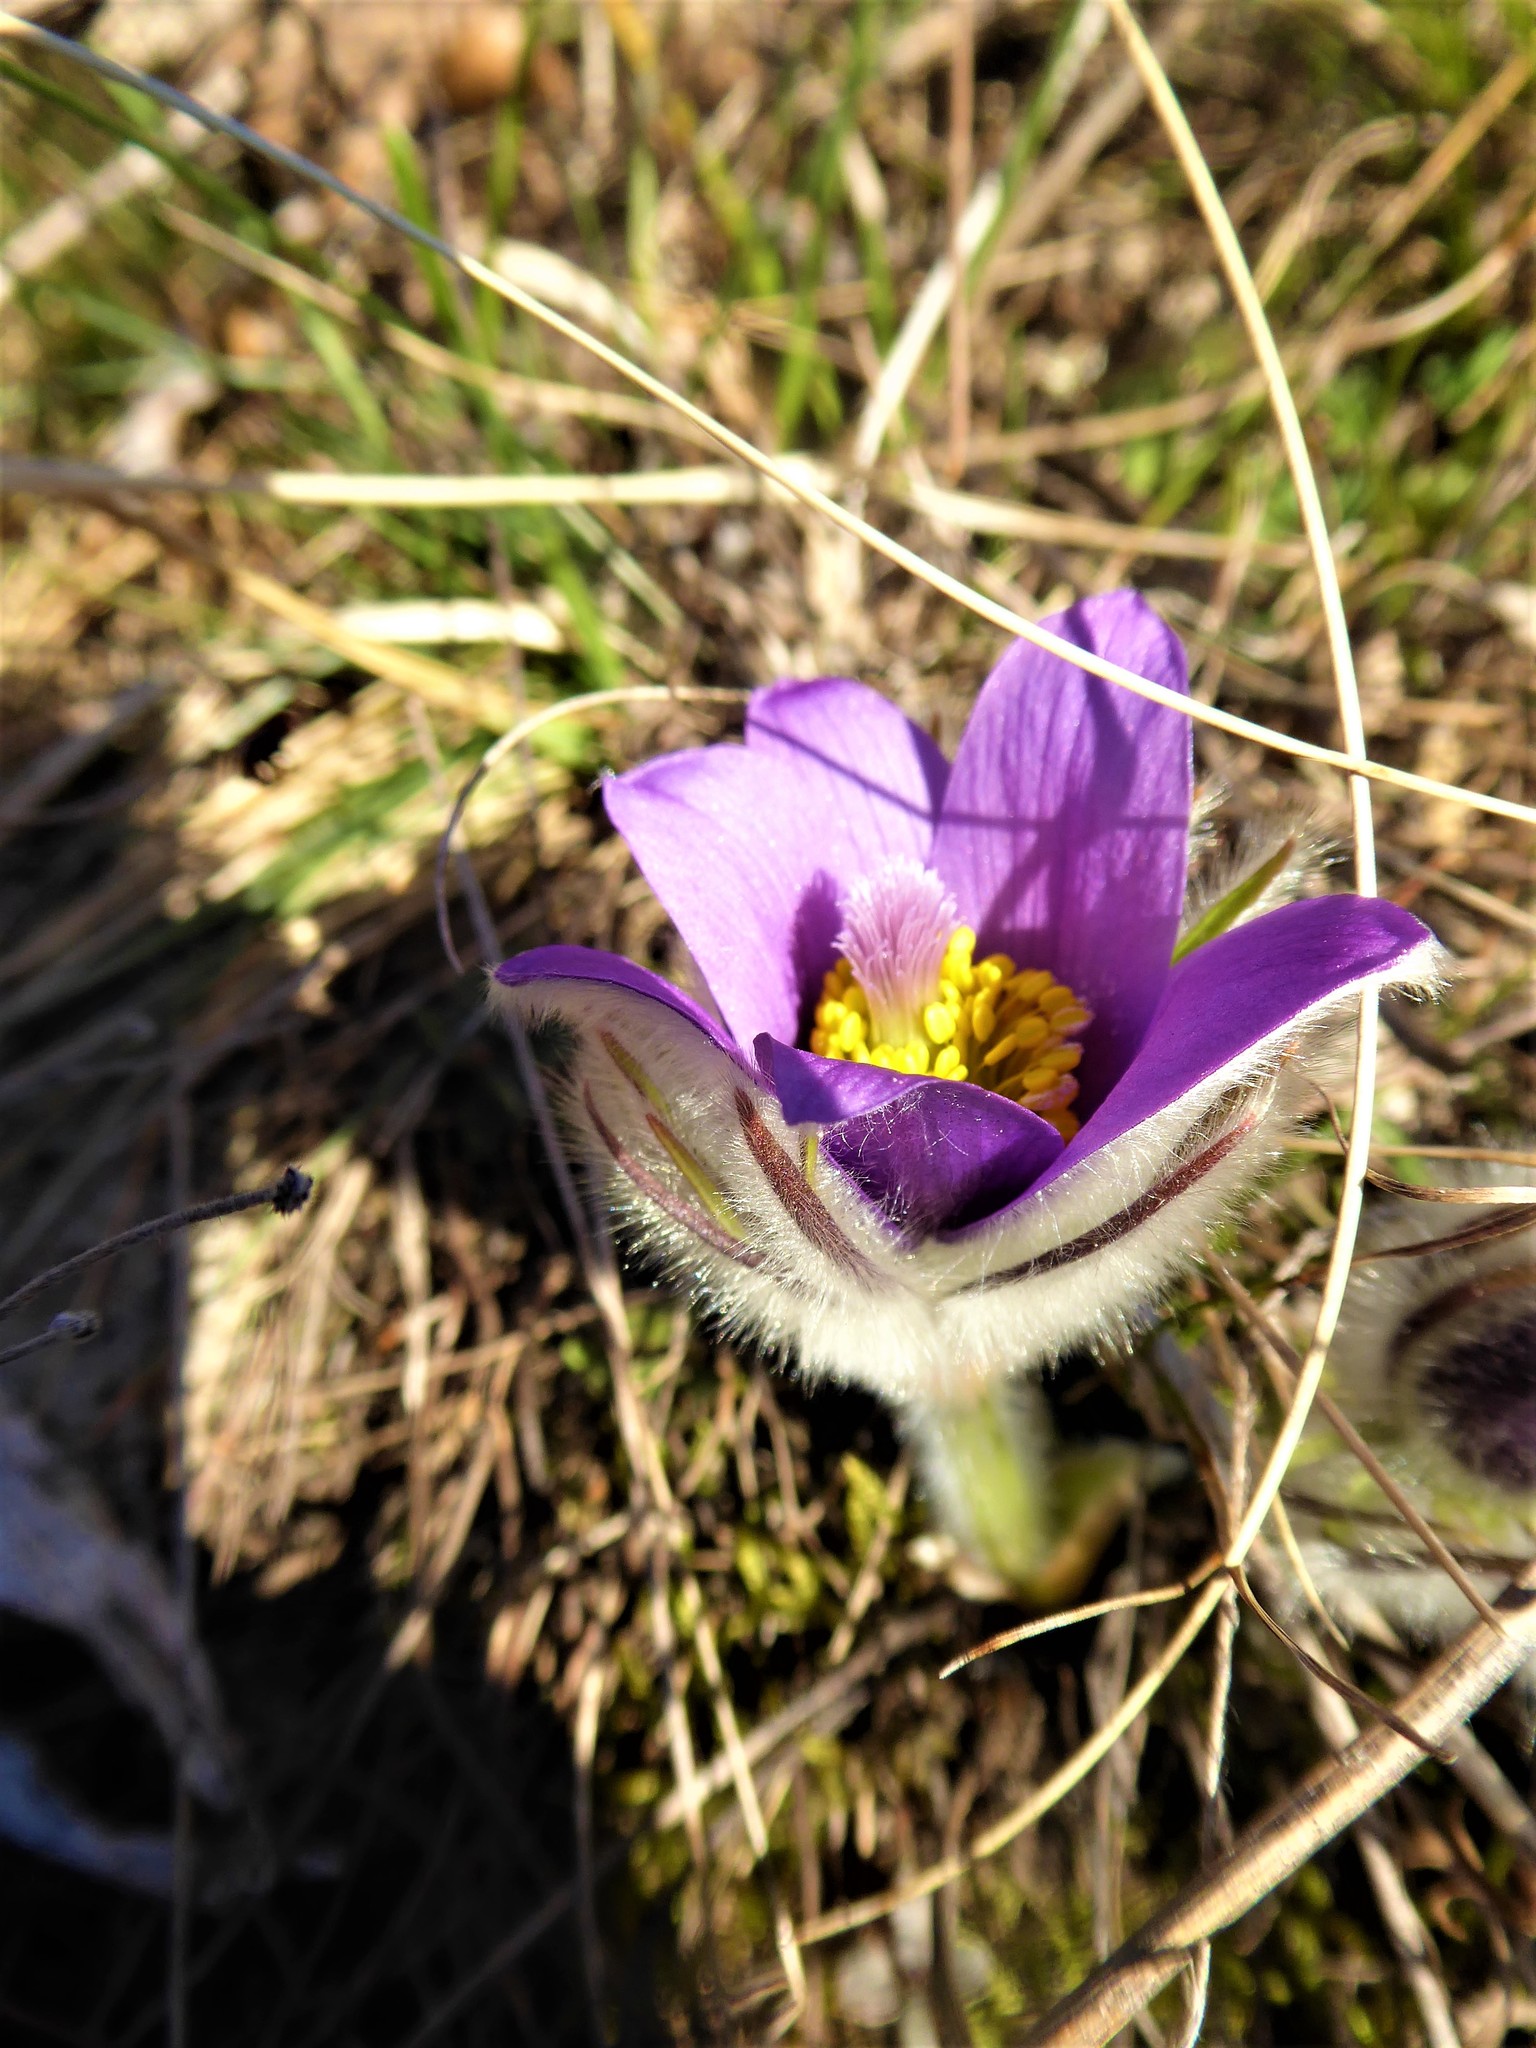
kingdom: Plantae
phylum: Tracheophyta
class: Magnoliopsida
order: Ranunculales
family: Ranunculaceae
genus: Pulsatilla
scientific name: Pulsatilla grandis
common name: Greater pasque flower
